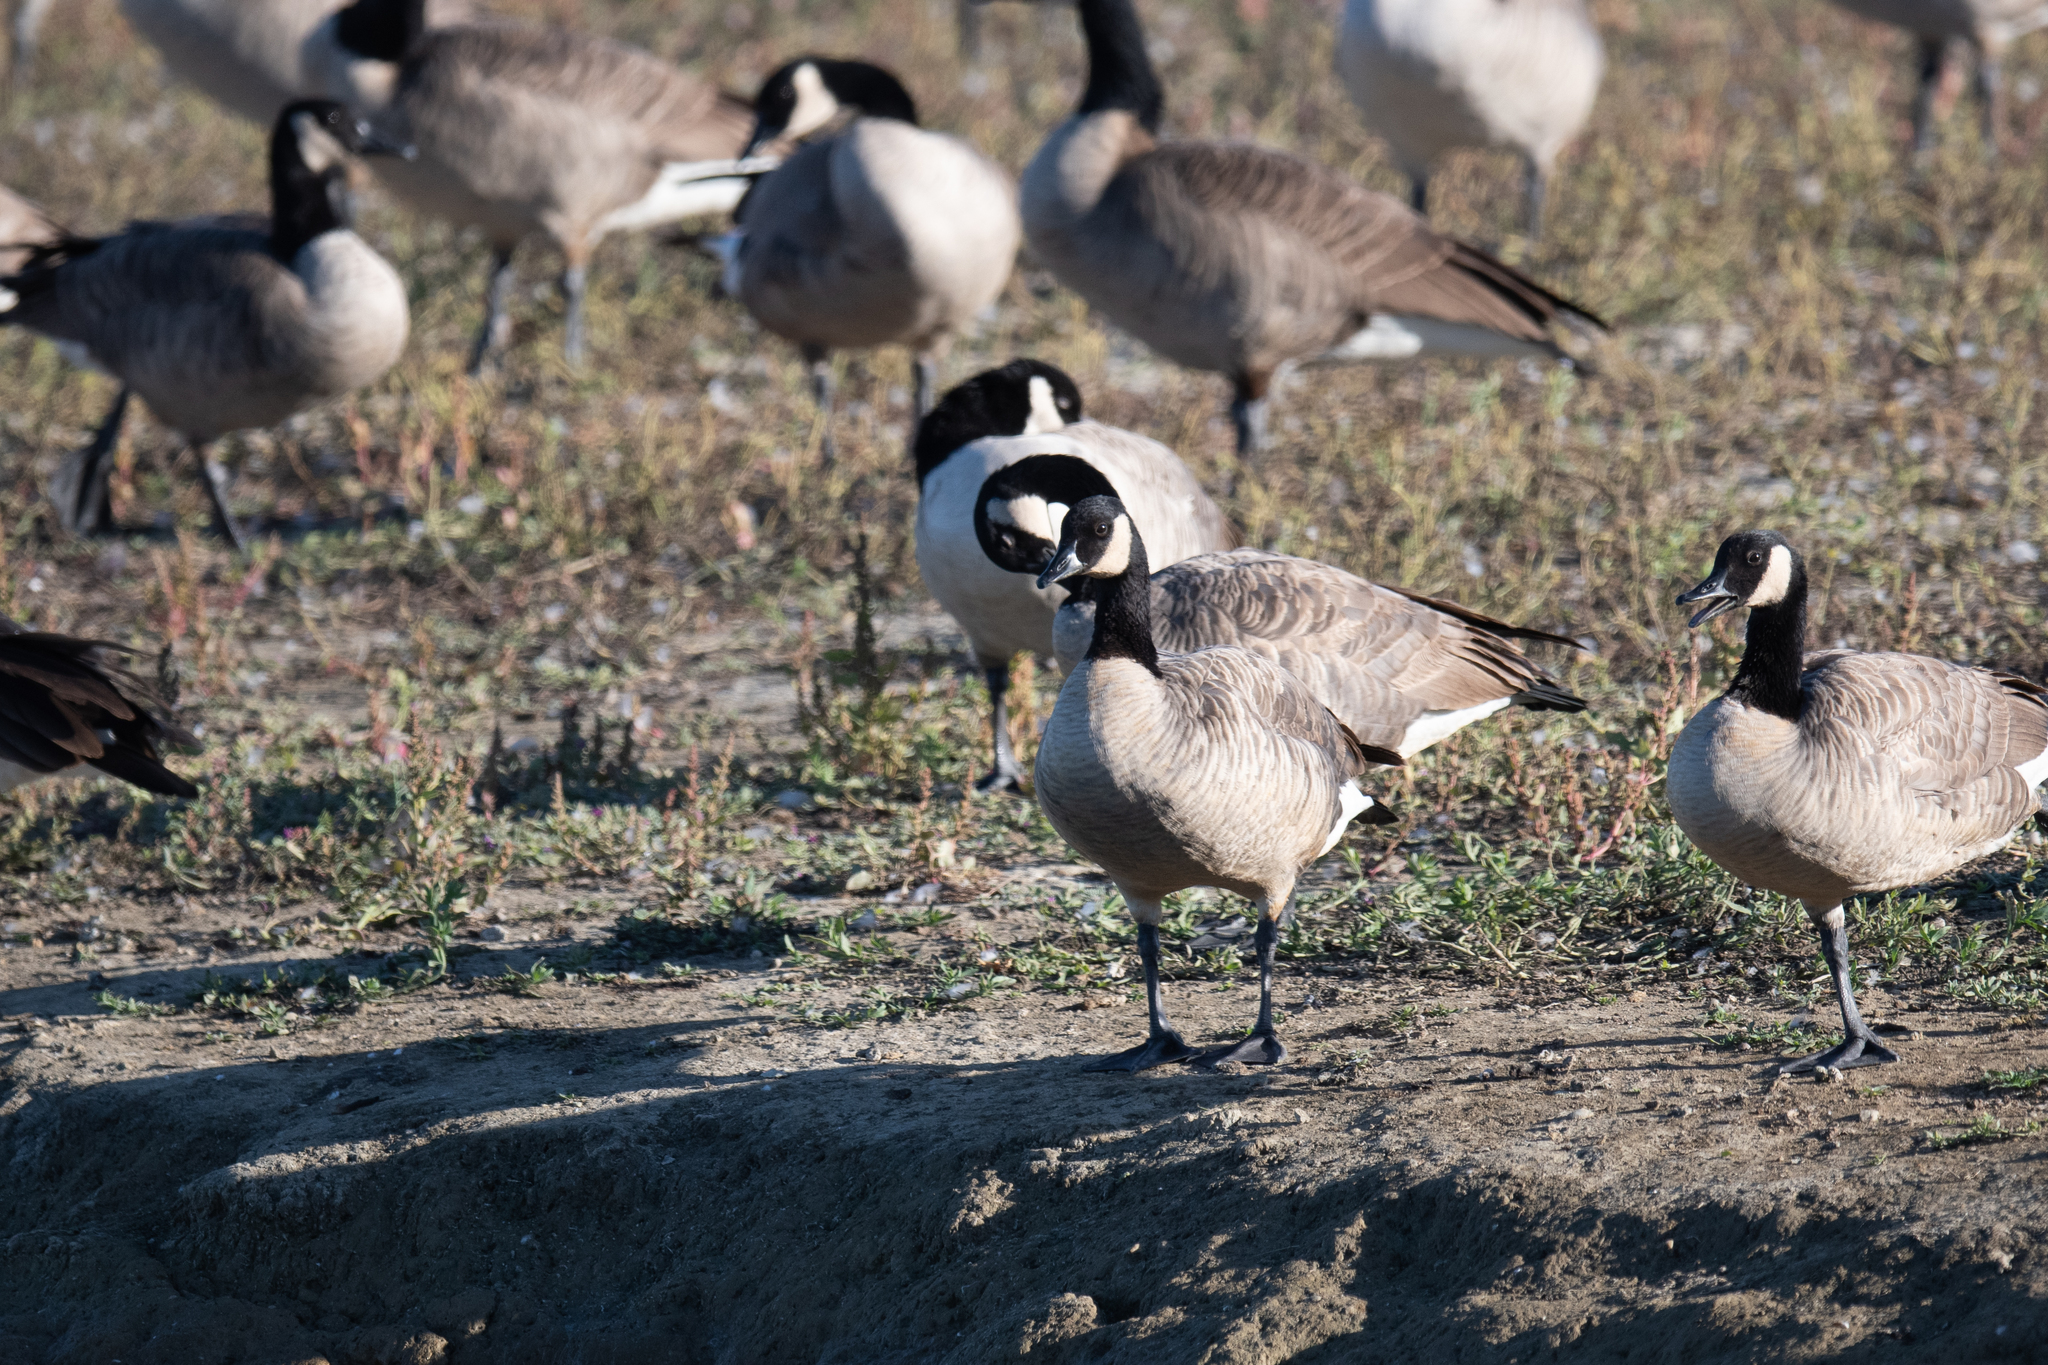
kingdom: Animalia
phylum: Chordata
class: Aves
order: Anseriformes
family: Anatidae
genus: Branta
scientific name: Branta canadensis
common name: Canada goose
